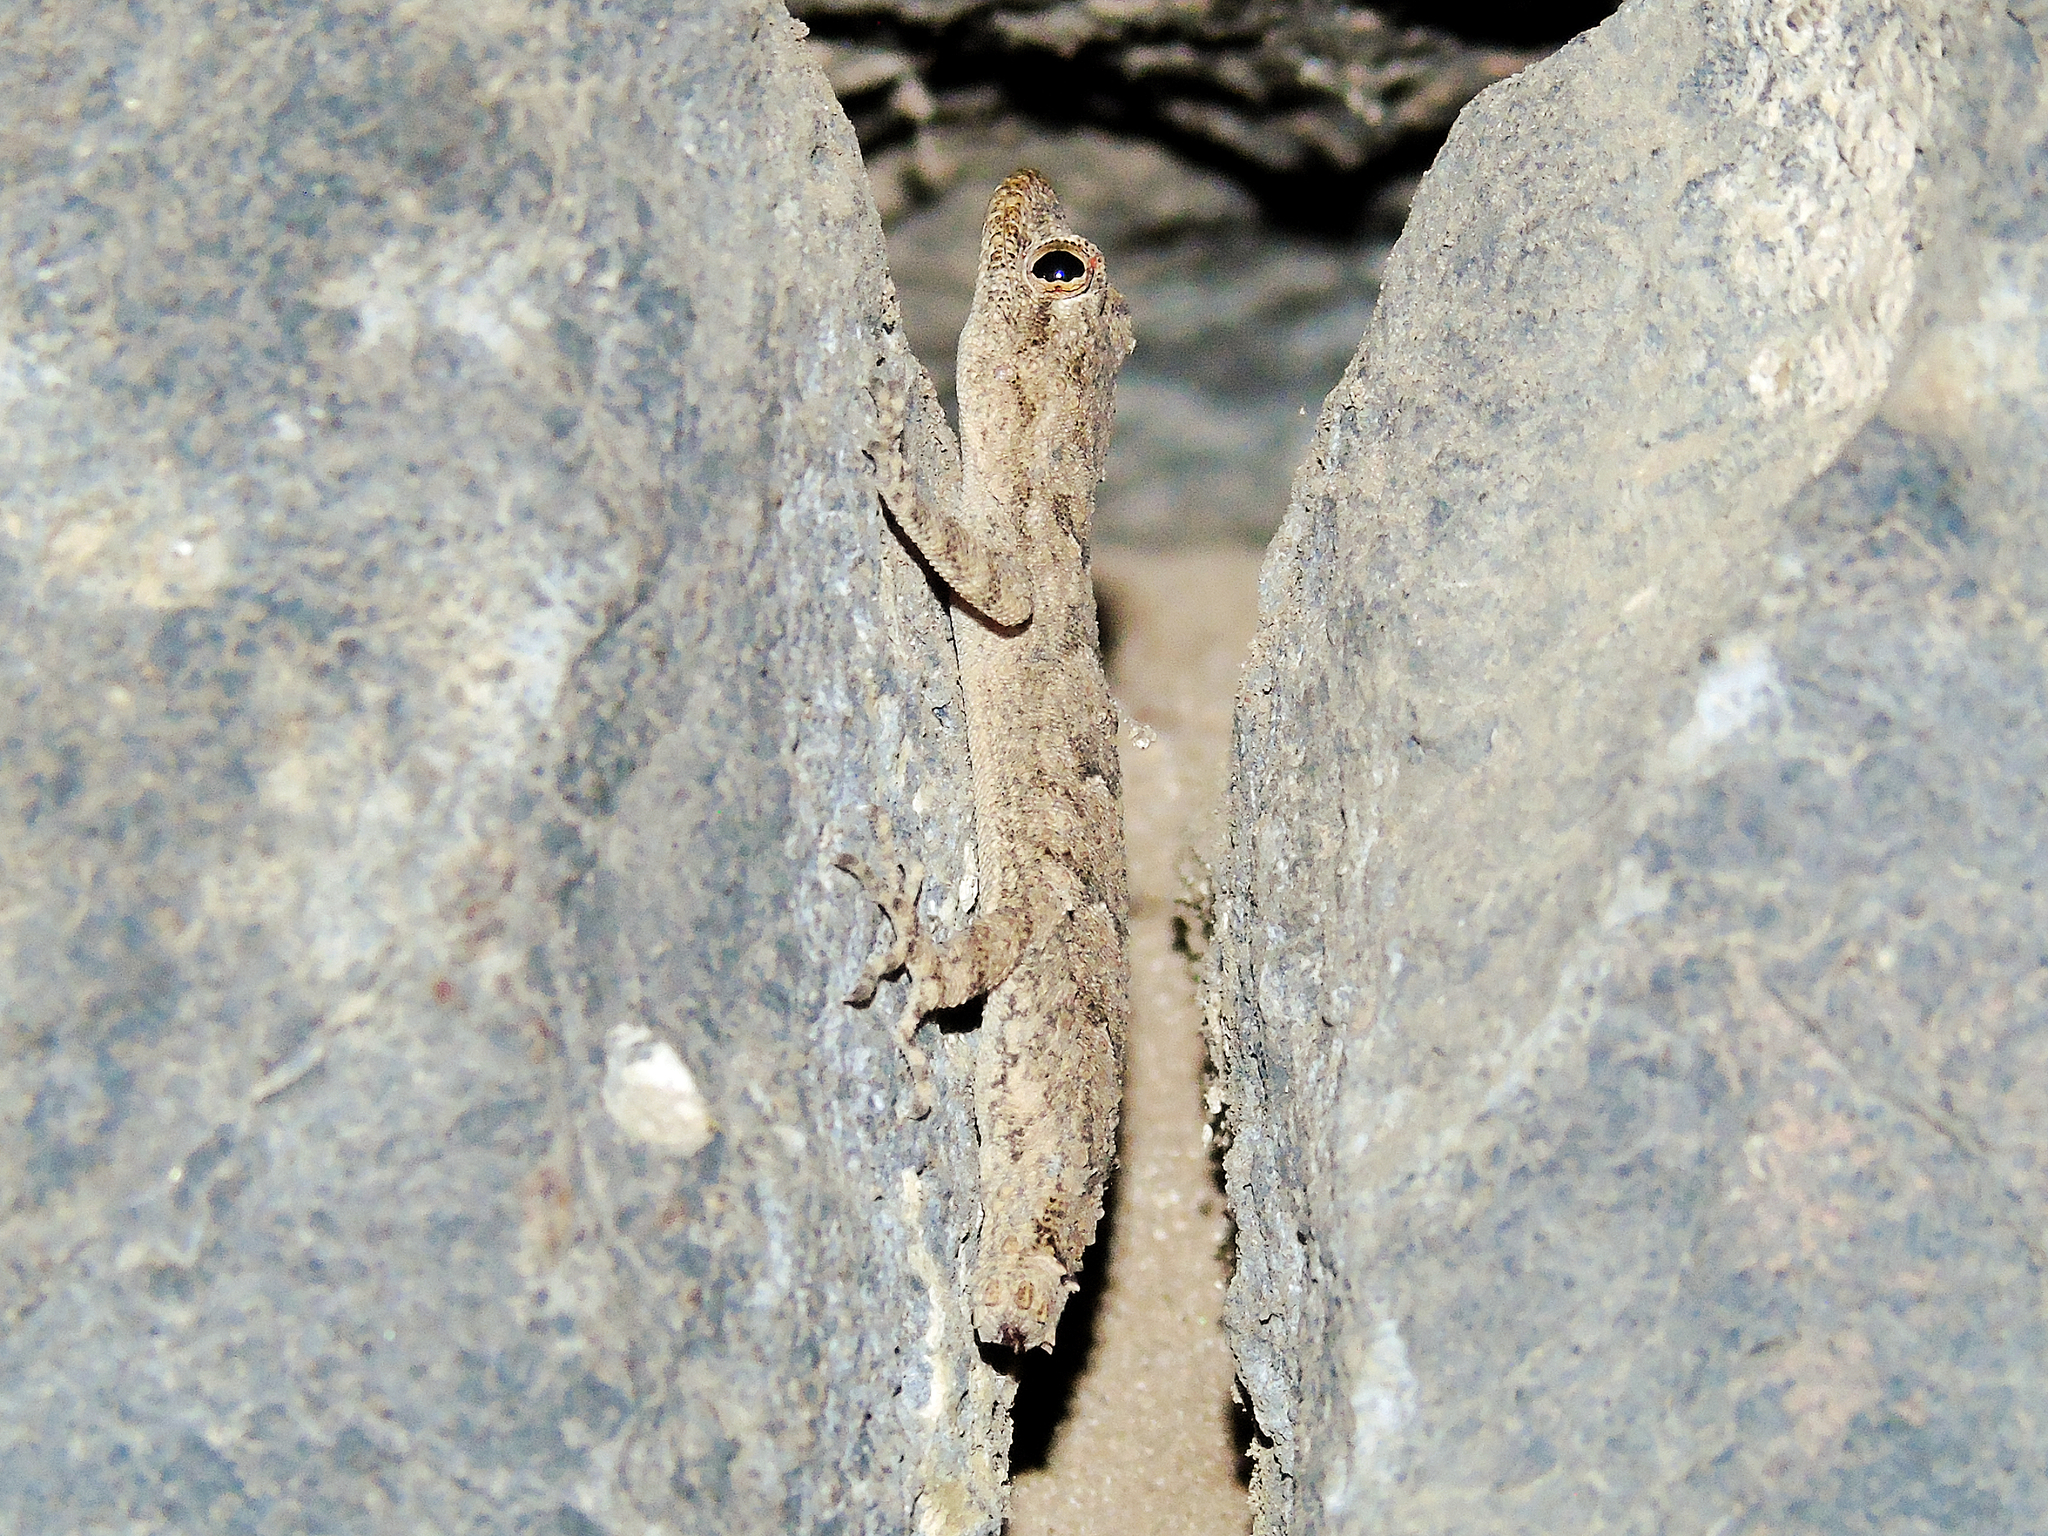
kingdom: Animalia
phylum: Chordata
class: Squamata
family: Gekkonidae
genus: Mediodactylus
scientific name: Mediodactylus heterocercus
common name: Asia minor thin-toed gecko
